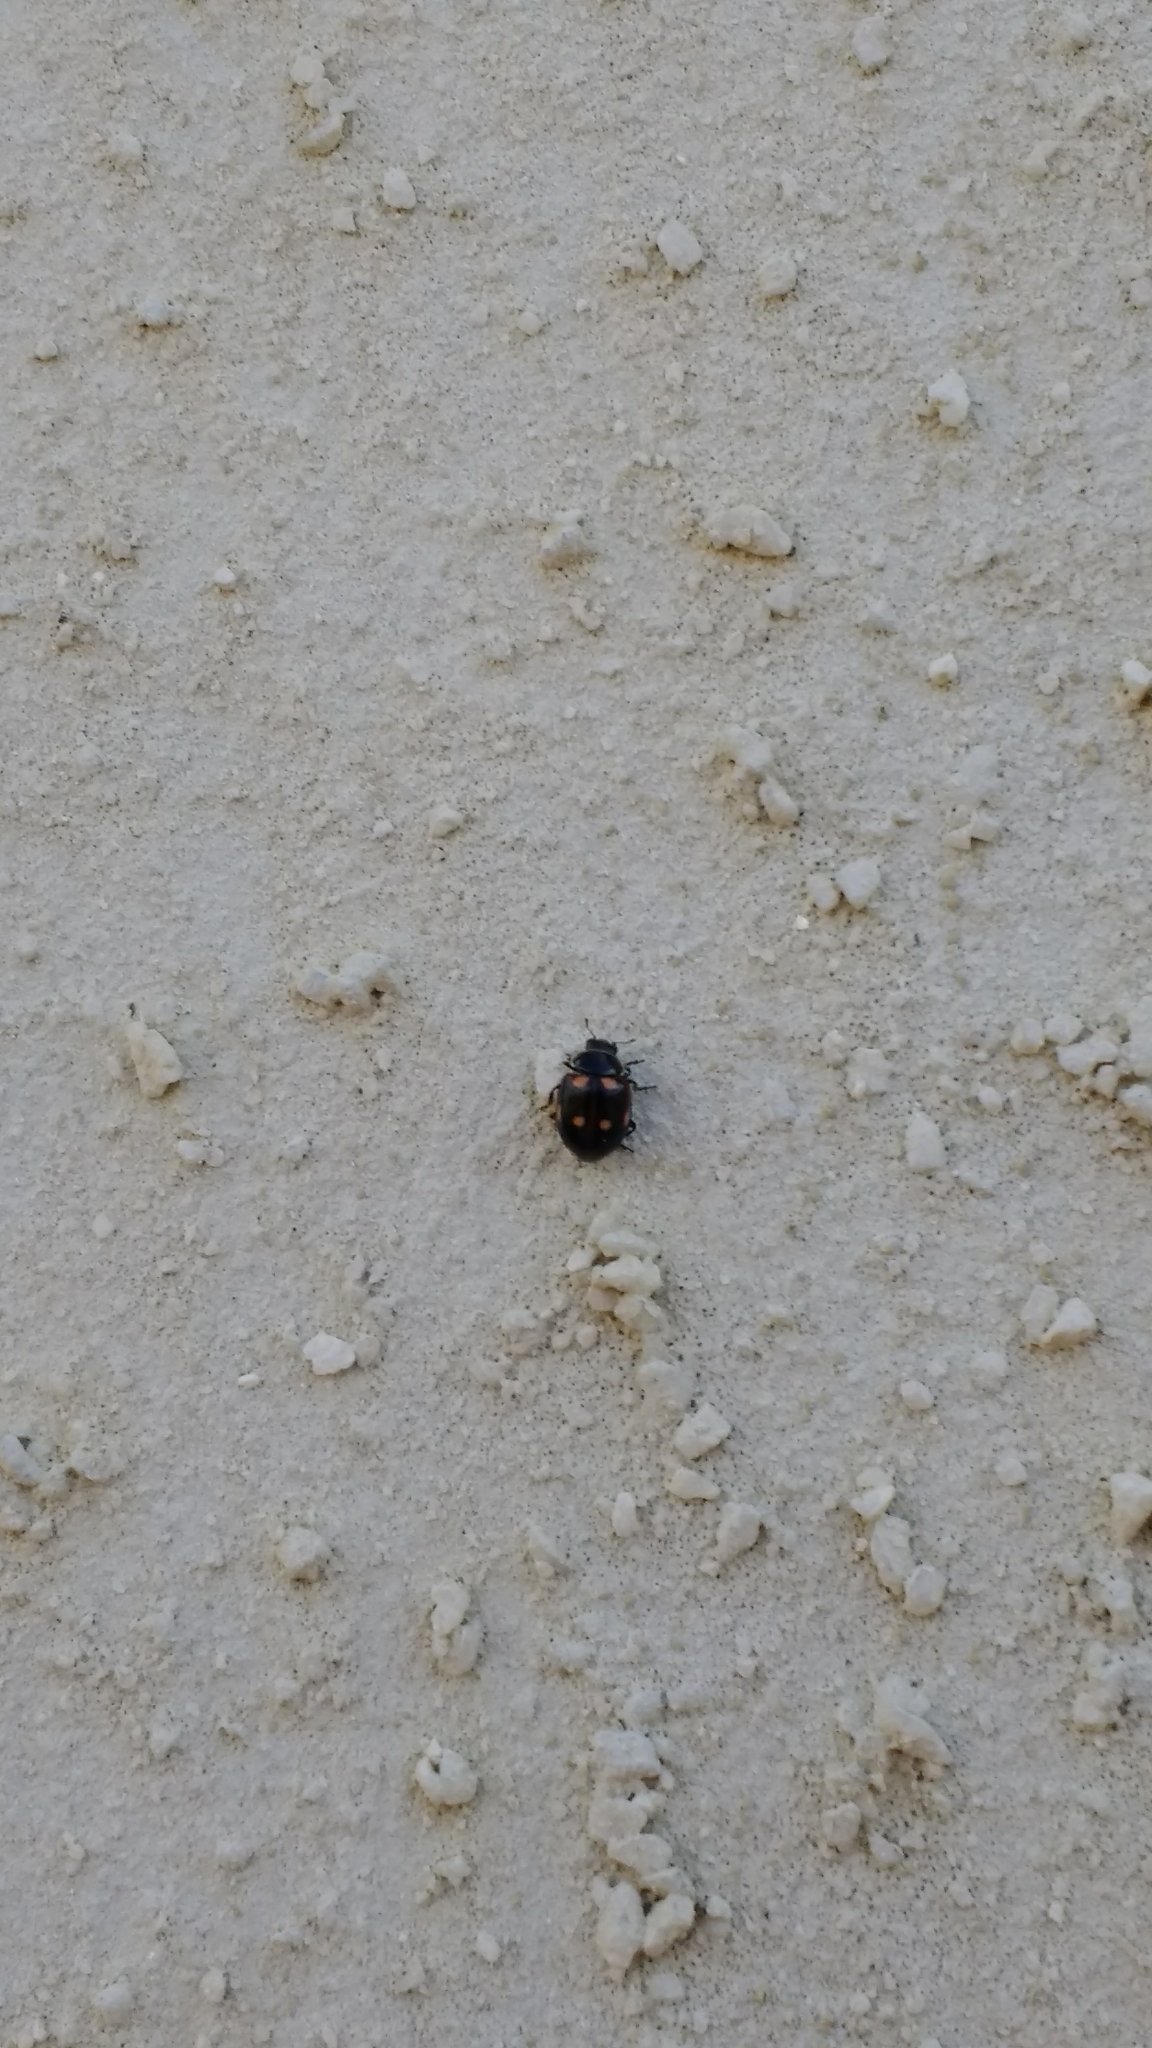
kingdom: Animalia
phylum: Arthropoda
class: Insecta
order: Coleoptera
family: Coccinellidae
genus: Eriopis
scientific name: Eriopis magellanica
